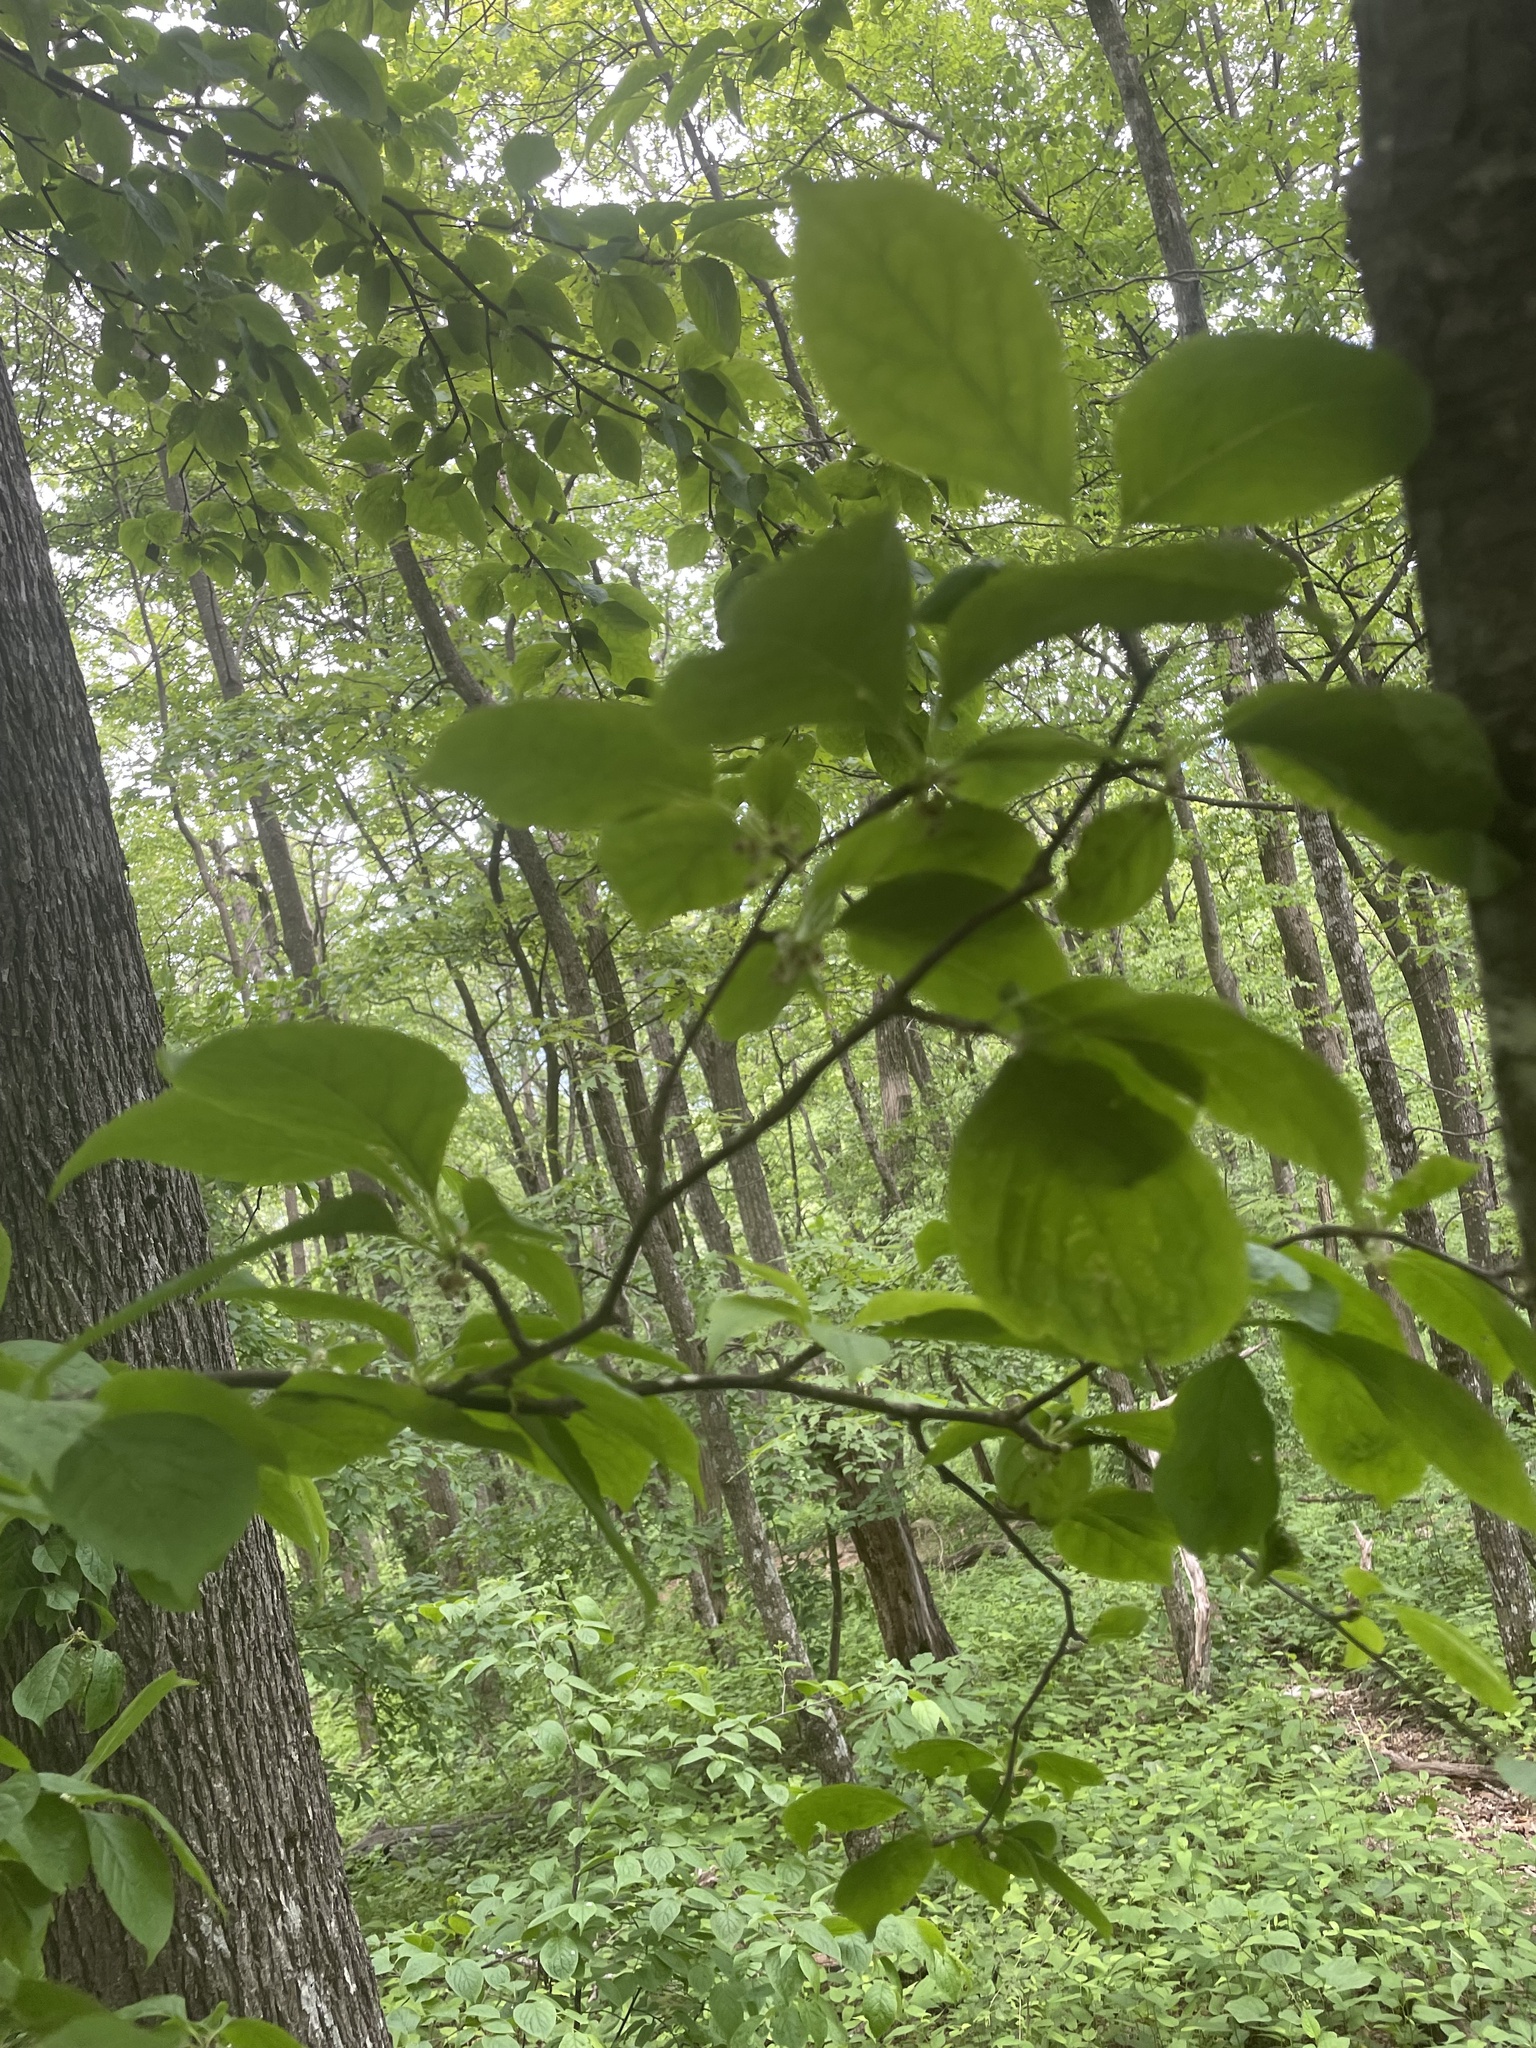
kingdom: Plantae
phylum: Tracheophyta
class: Magnoliopsida
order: Aquifoliales
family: Aquifoliaceae
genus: Ilex
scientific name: Ilex montana
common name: Mountain winterberry
